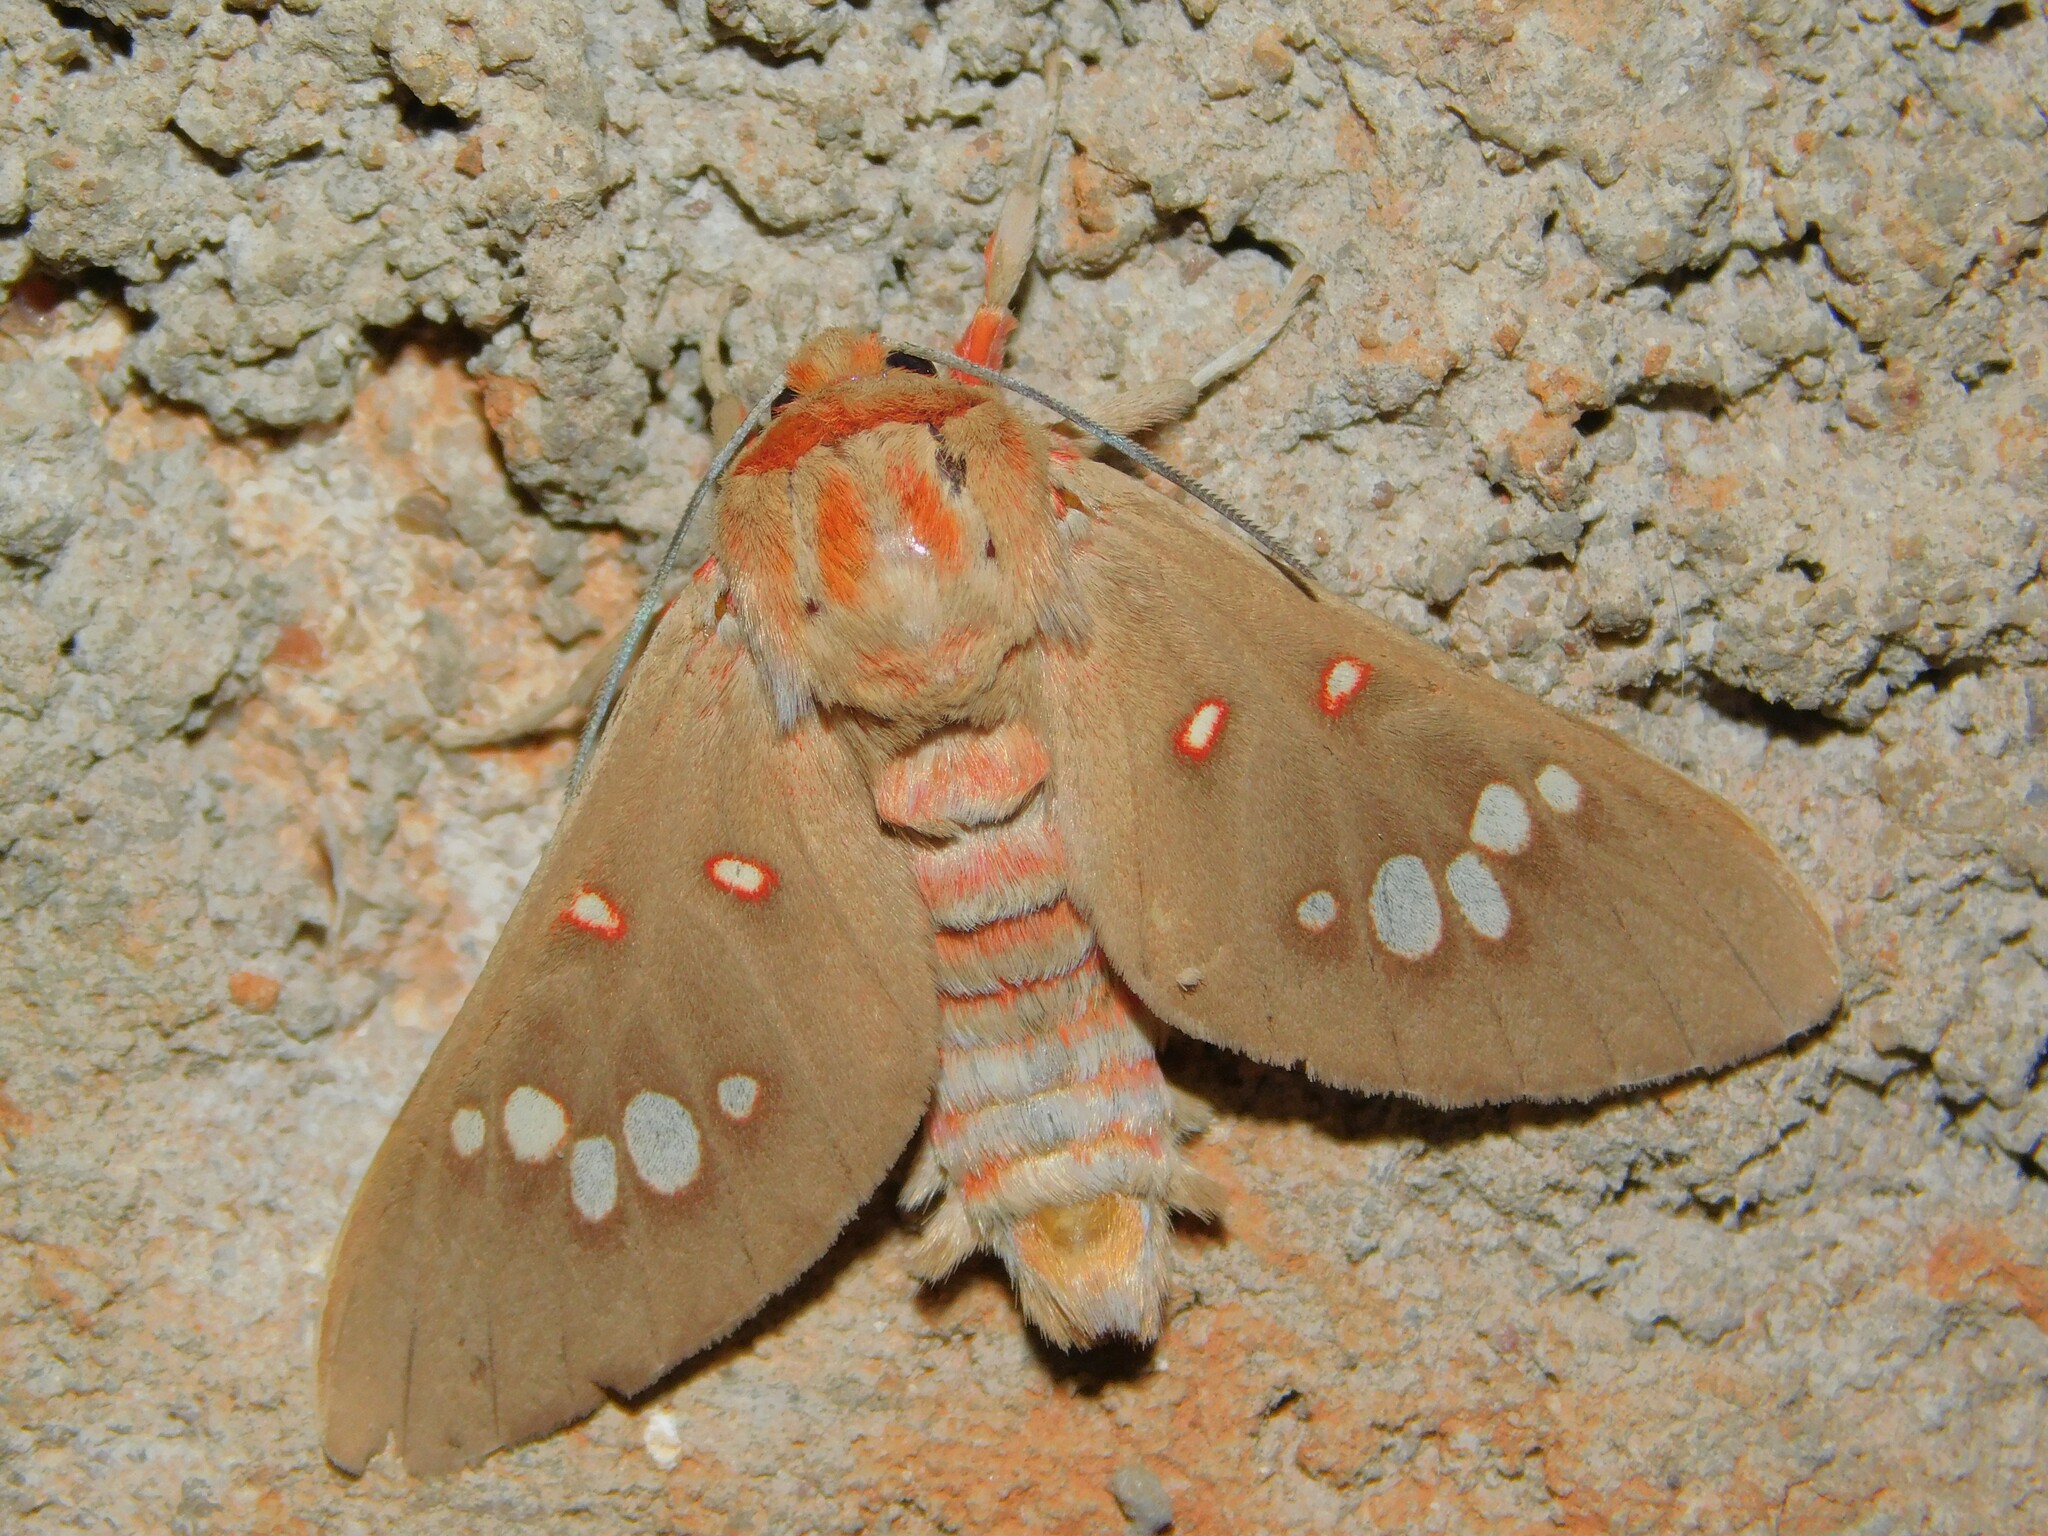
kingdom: Animalia
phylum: Arthropoda
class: Insecta
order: Lepidoptera
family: Erebidae
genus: Balacra
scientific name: Balacra preussi
